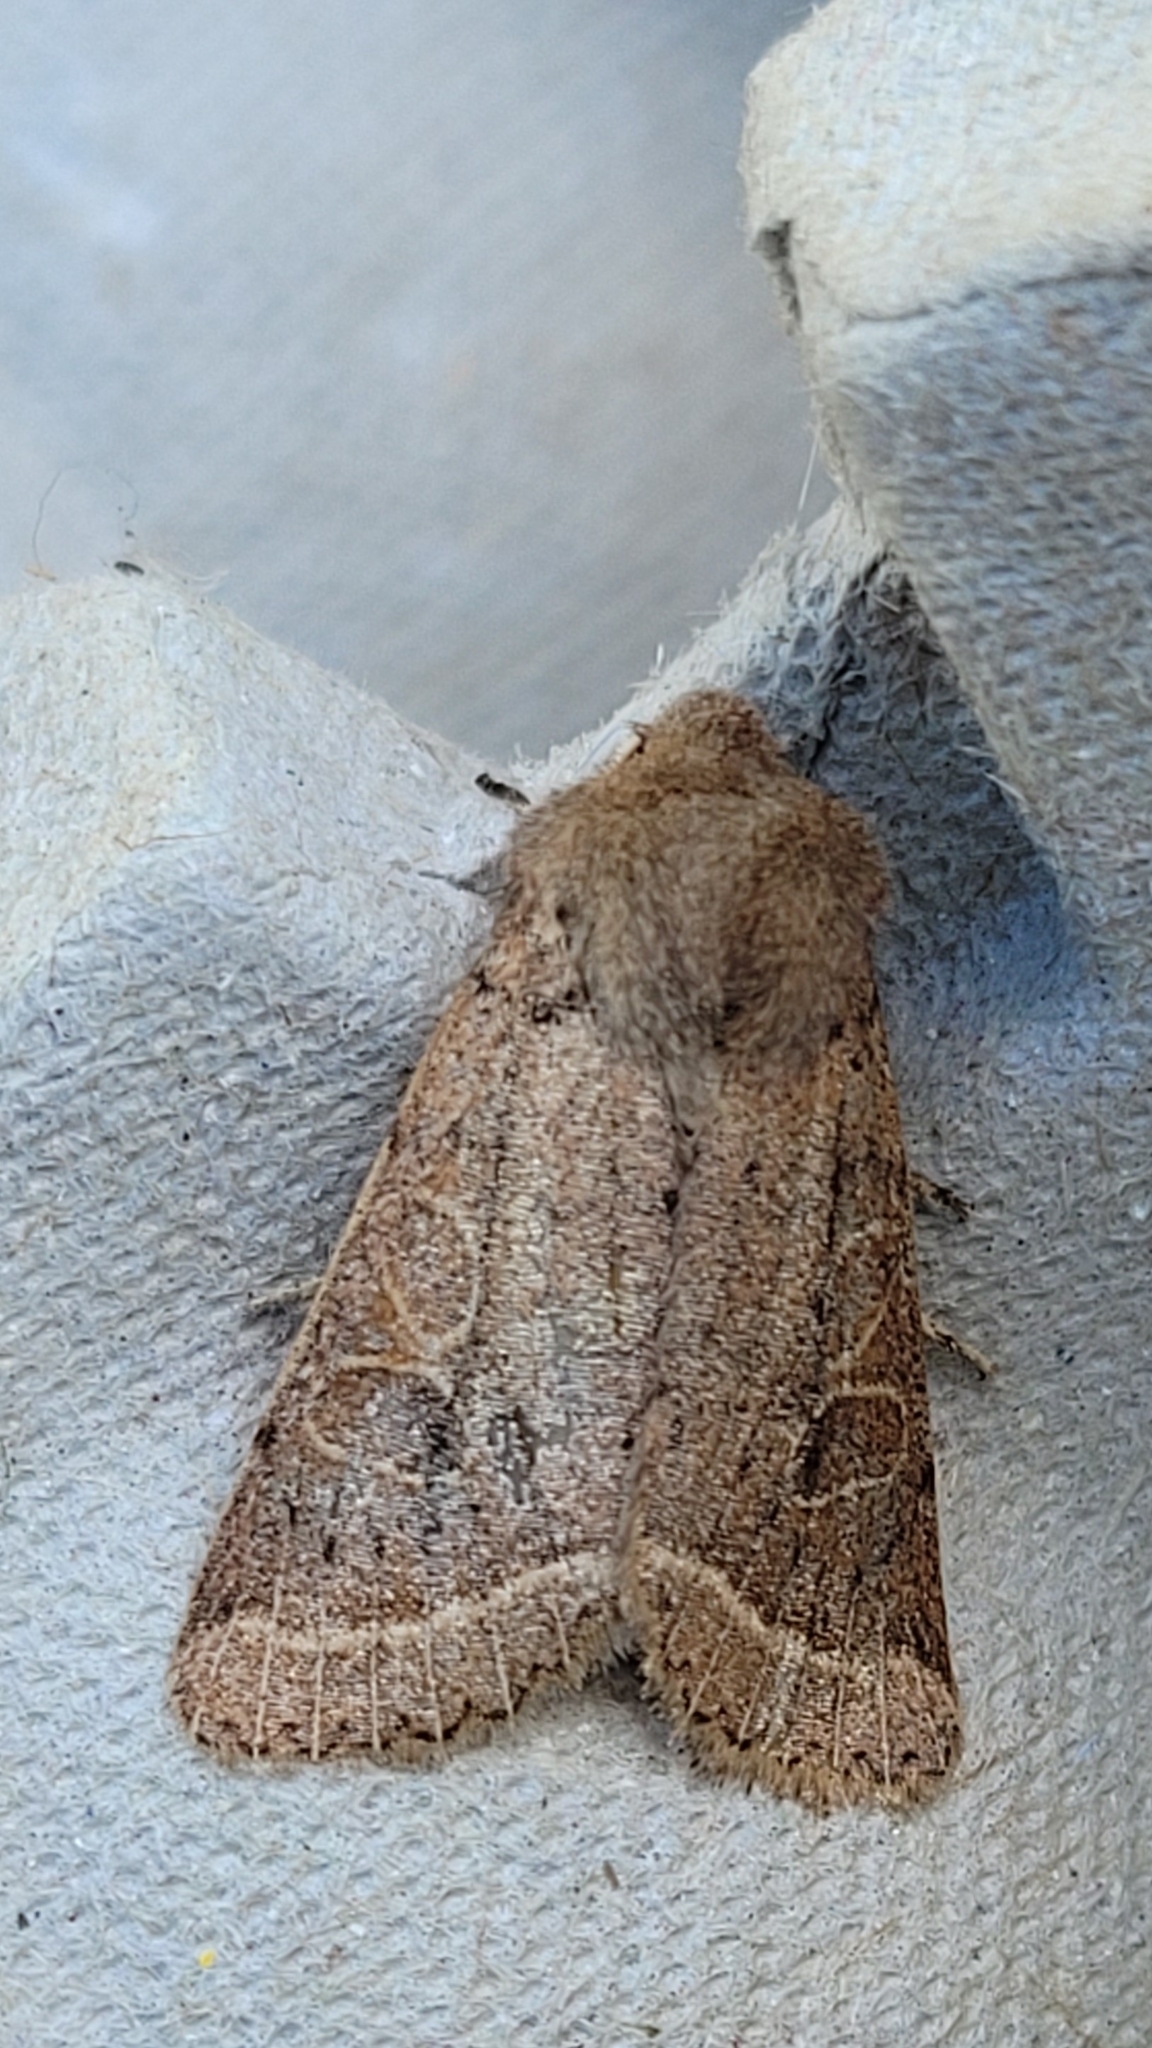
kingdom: Animalia
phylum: Arthropoda
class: Insecta
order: Lepidoptera
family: Noctuidae
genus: Orthosia
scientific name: Orthosia cerasi
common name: Common quaker
